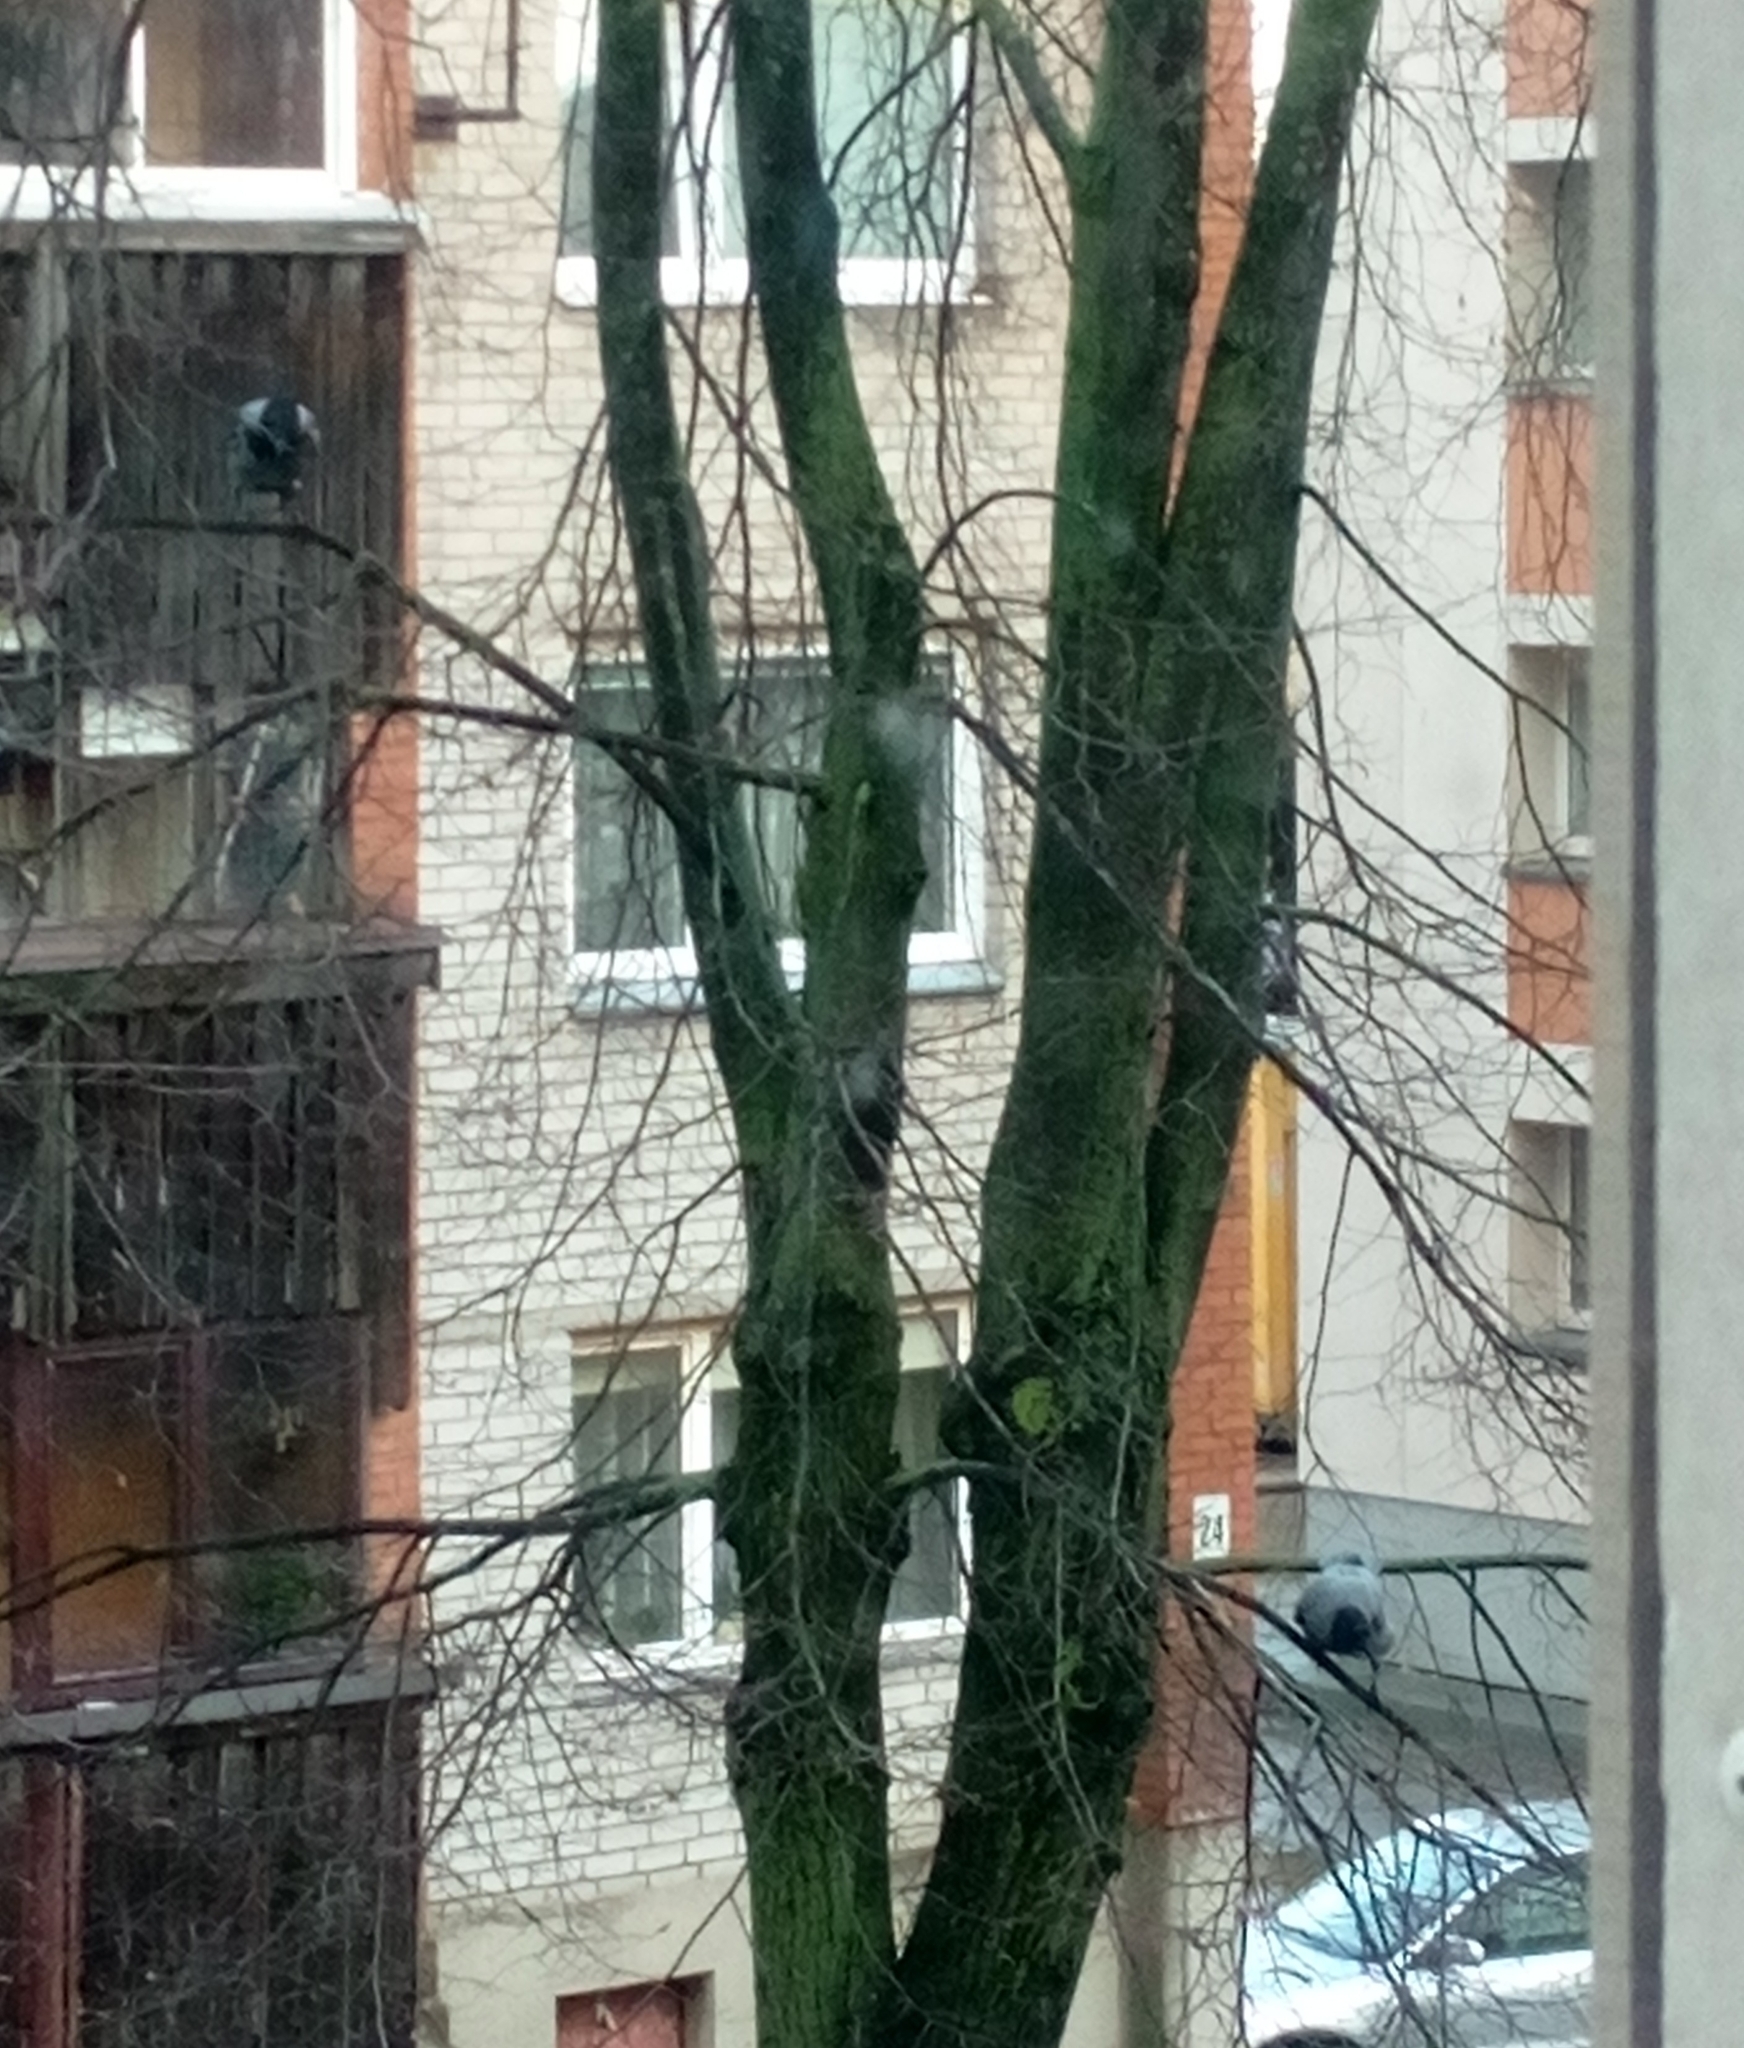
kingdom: Animalia
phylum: Chordata
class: Aves
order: Passeriformes
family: Corvidae
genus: Corvus
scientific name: Corvus cornix
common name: Hooded crow
